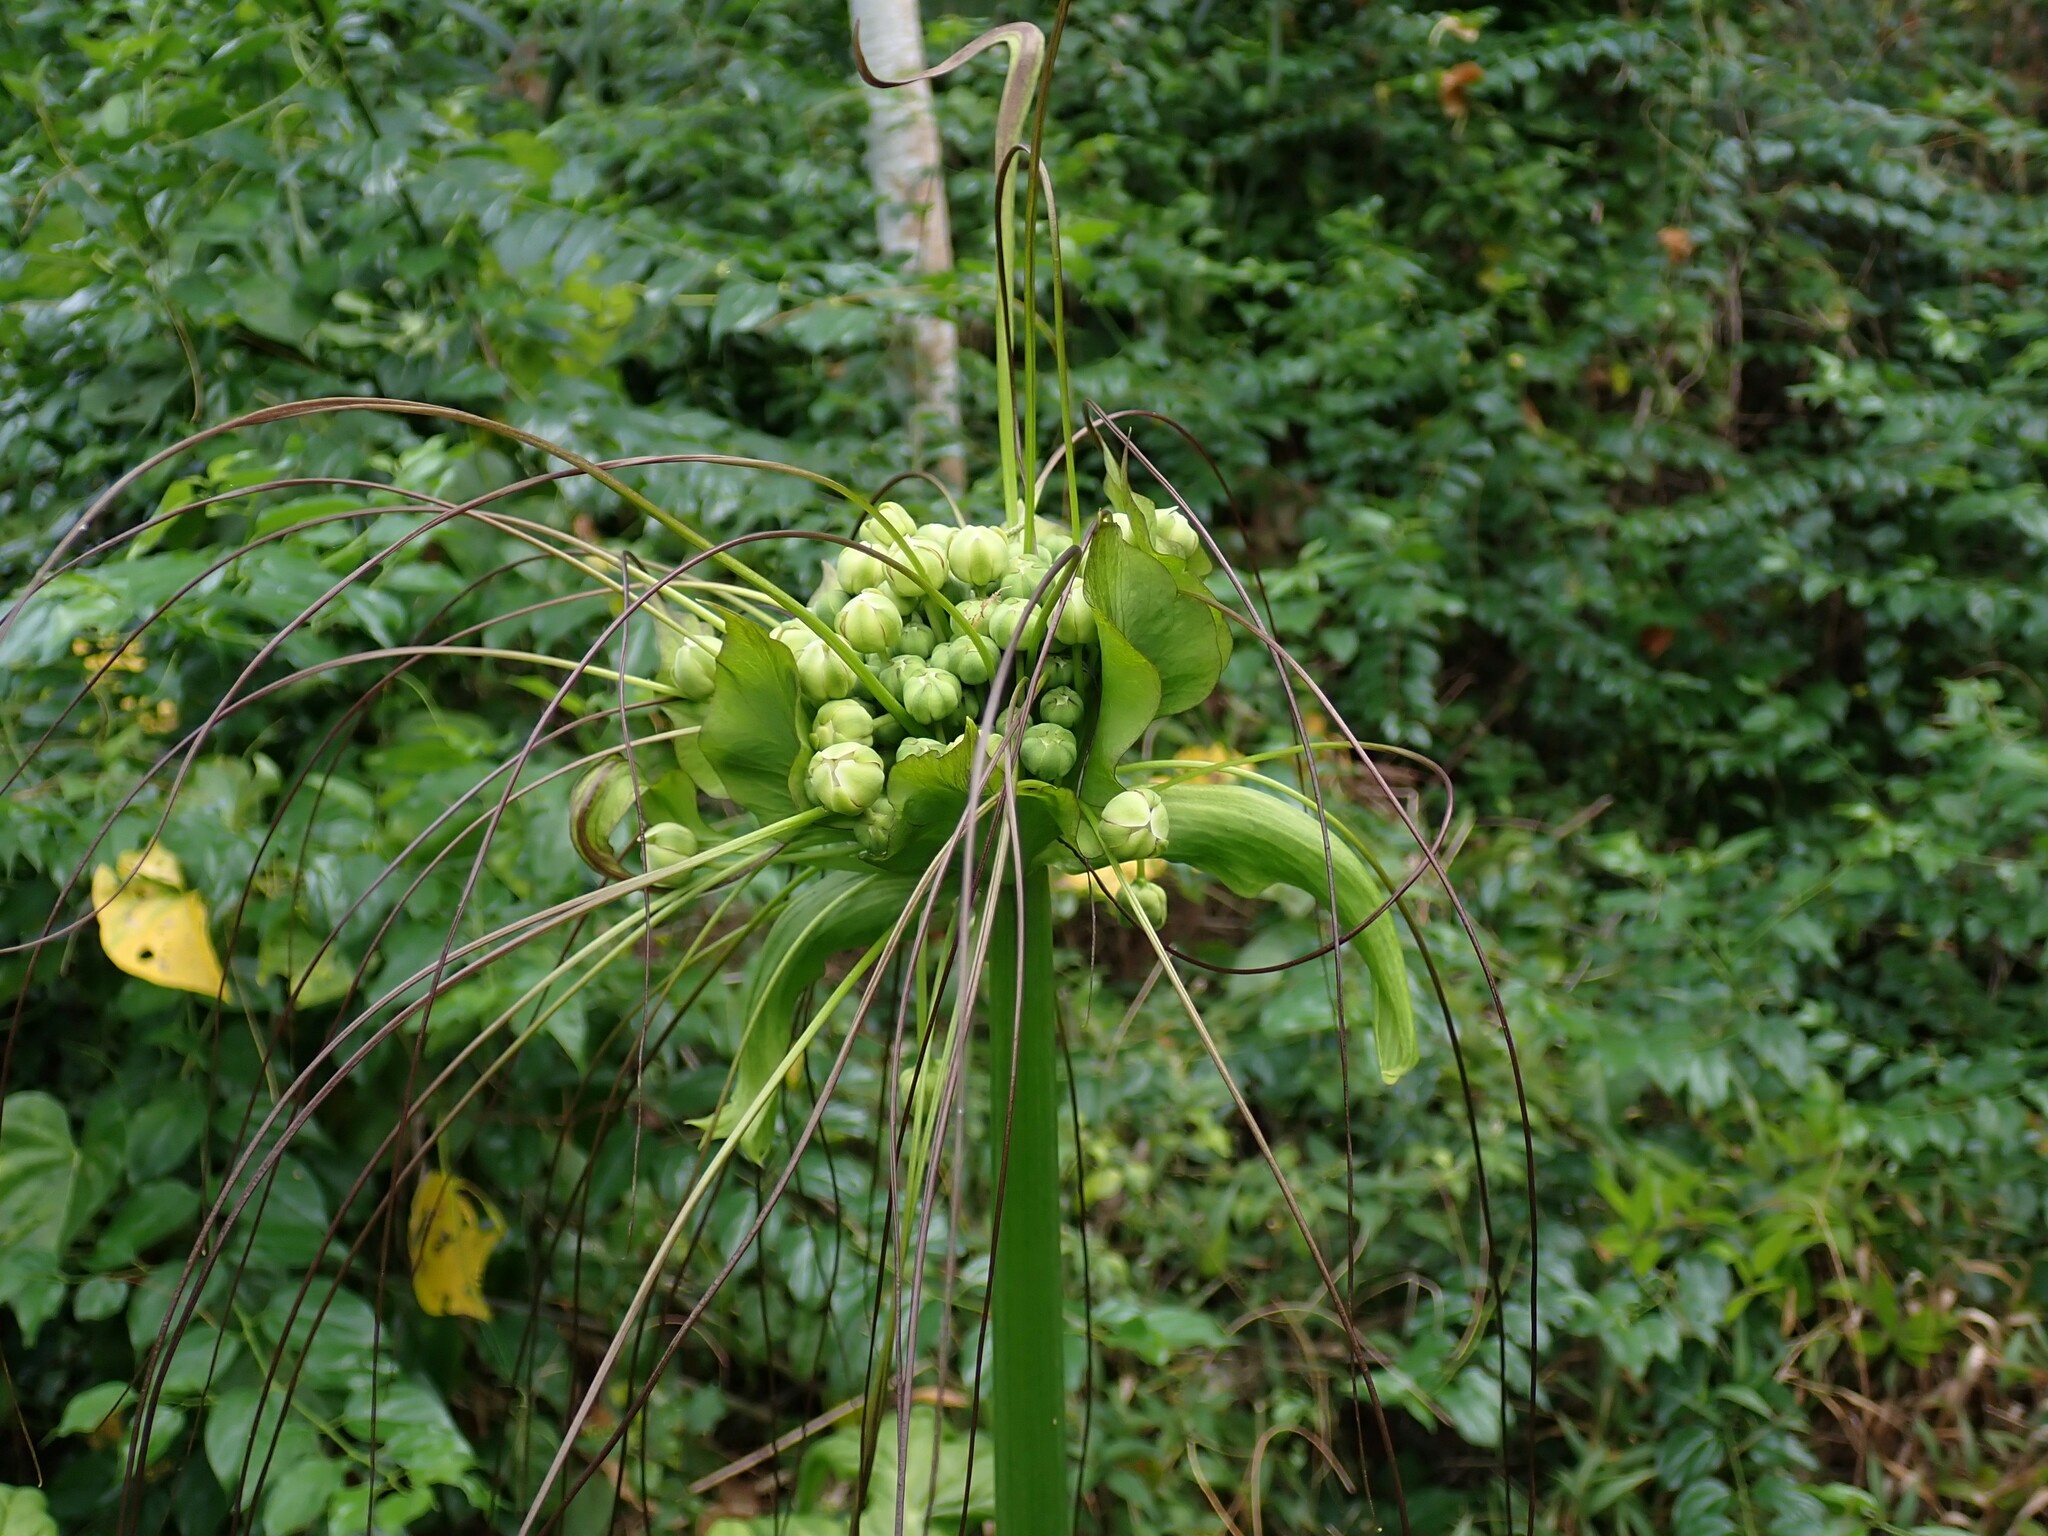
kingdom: Plantae
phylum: Tracheophyta
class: Liliopsida
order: Dioscoreales
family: Dioscoreaceae
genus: Tacca
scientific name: Tacca leontopetaloides
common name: Arrowroot
